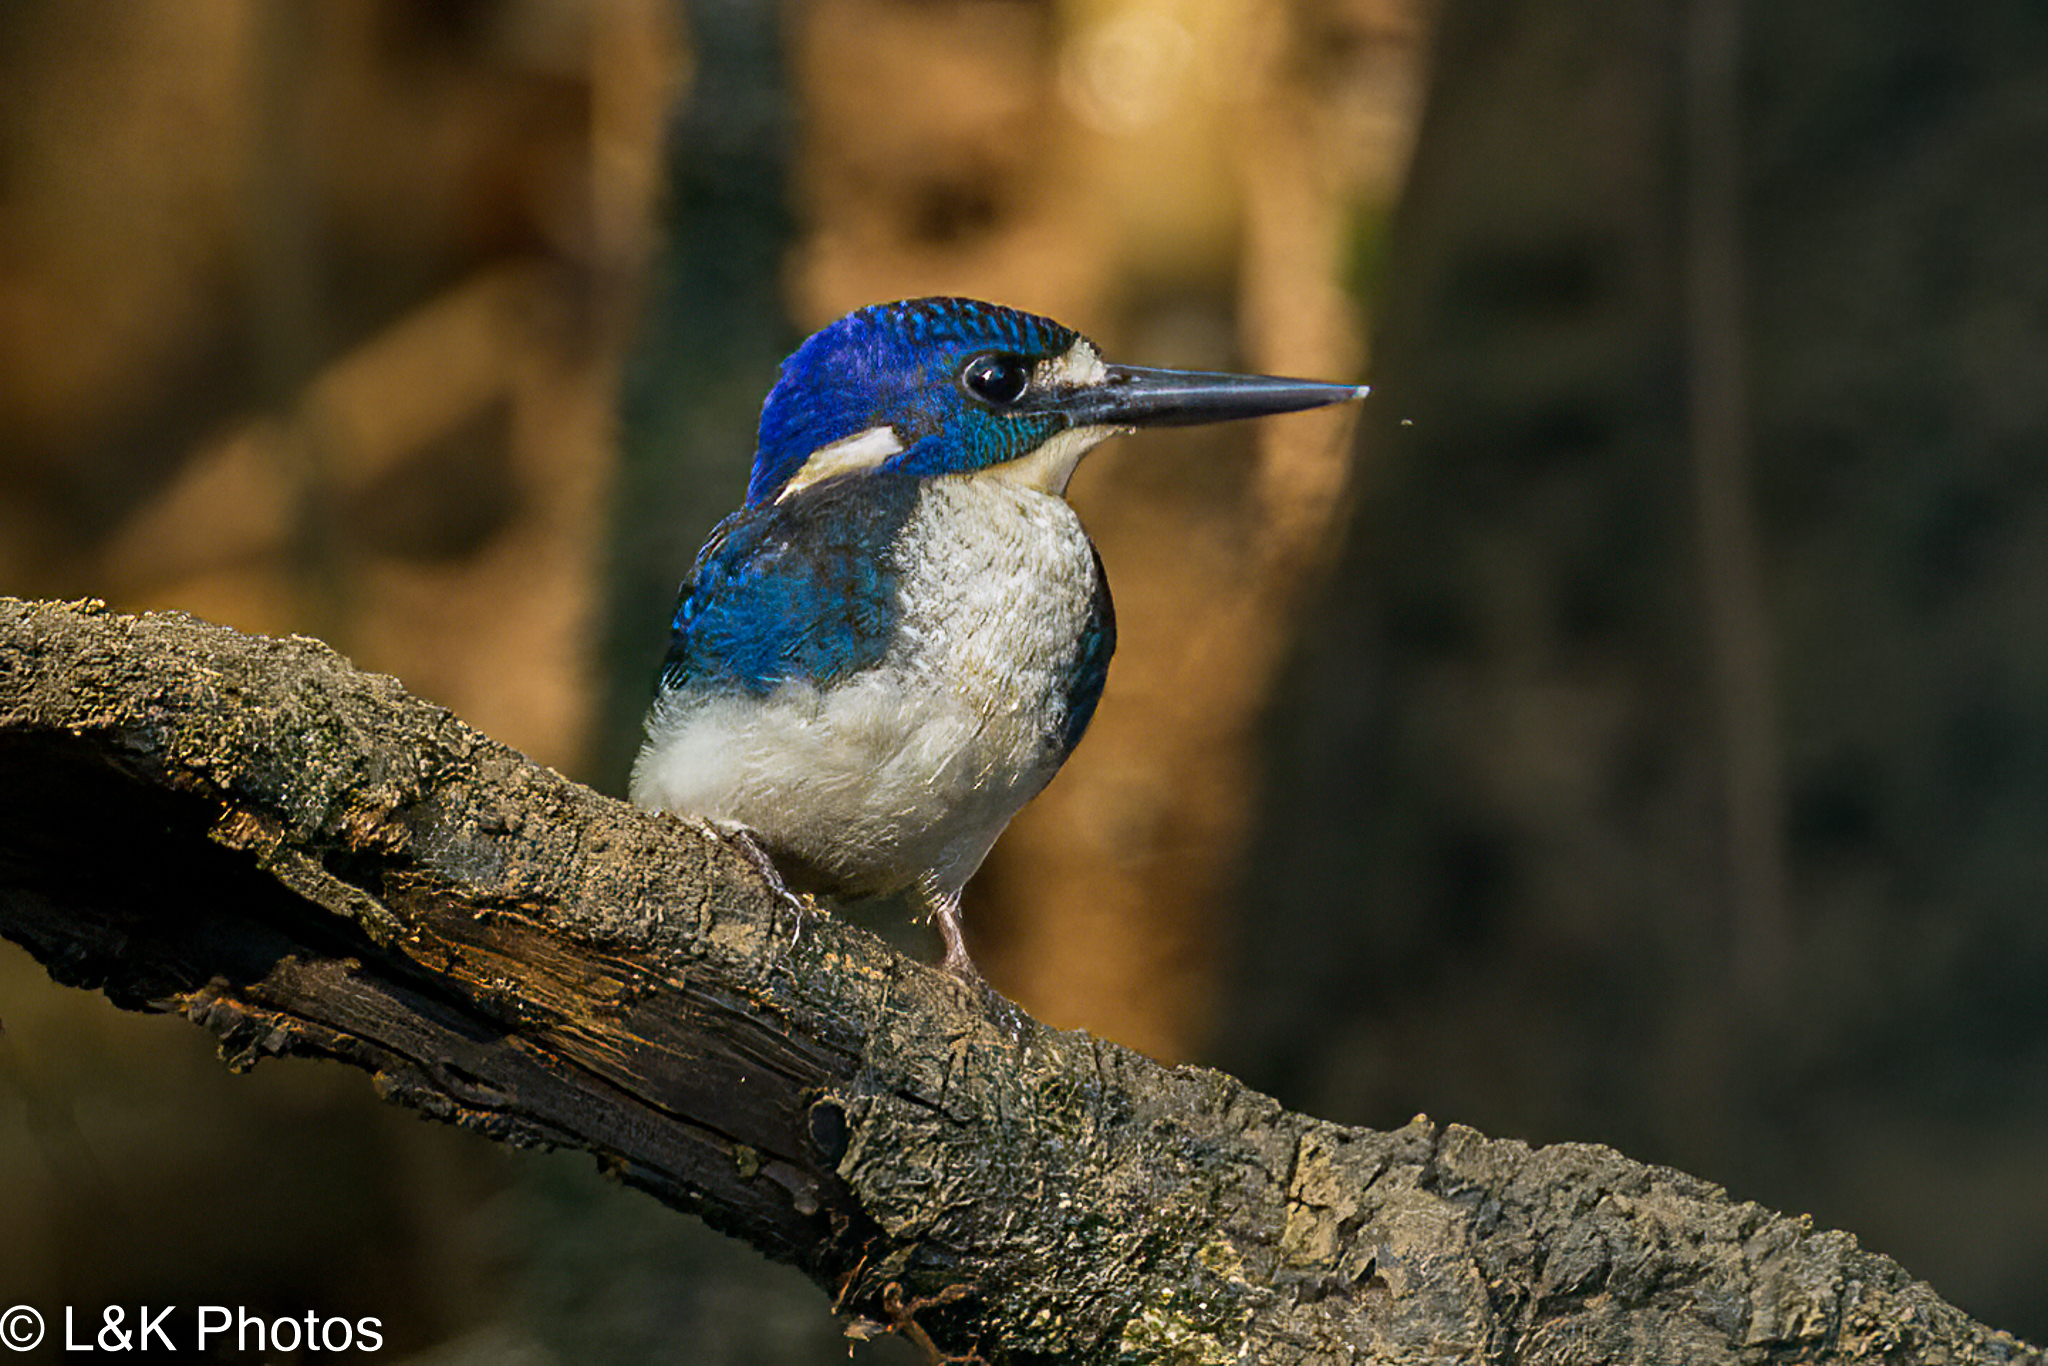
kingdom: Animalia
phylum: Chordata
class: Aves
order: Coraciiformes
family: Alcedinidae
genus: Ceyx
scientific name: Ceyx pusillus
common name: Little kingfisher
